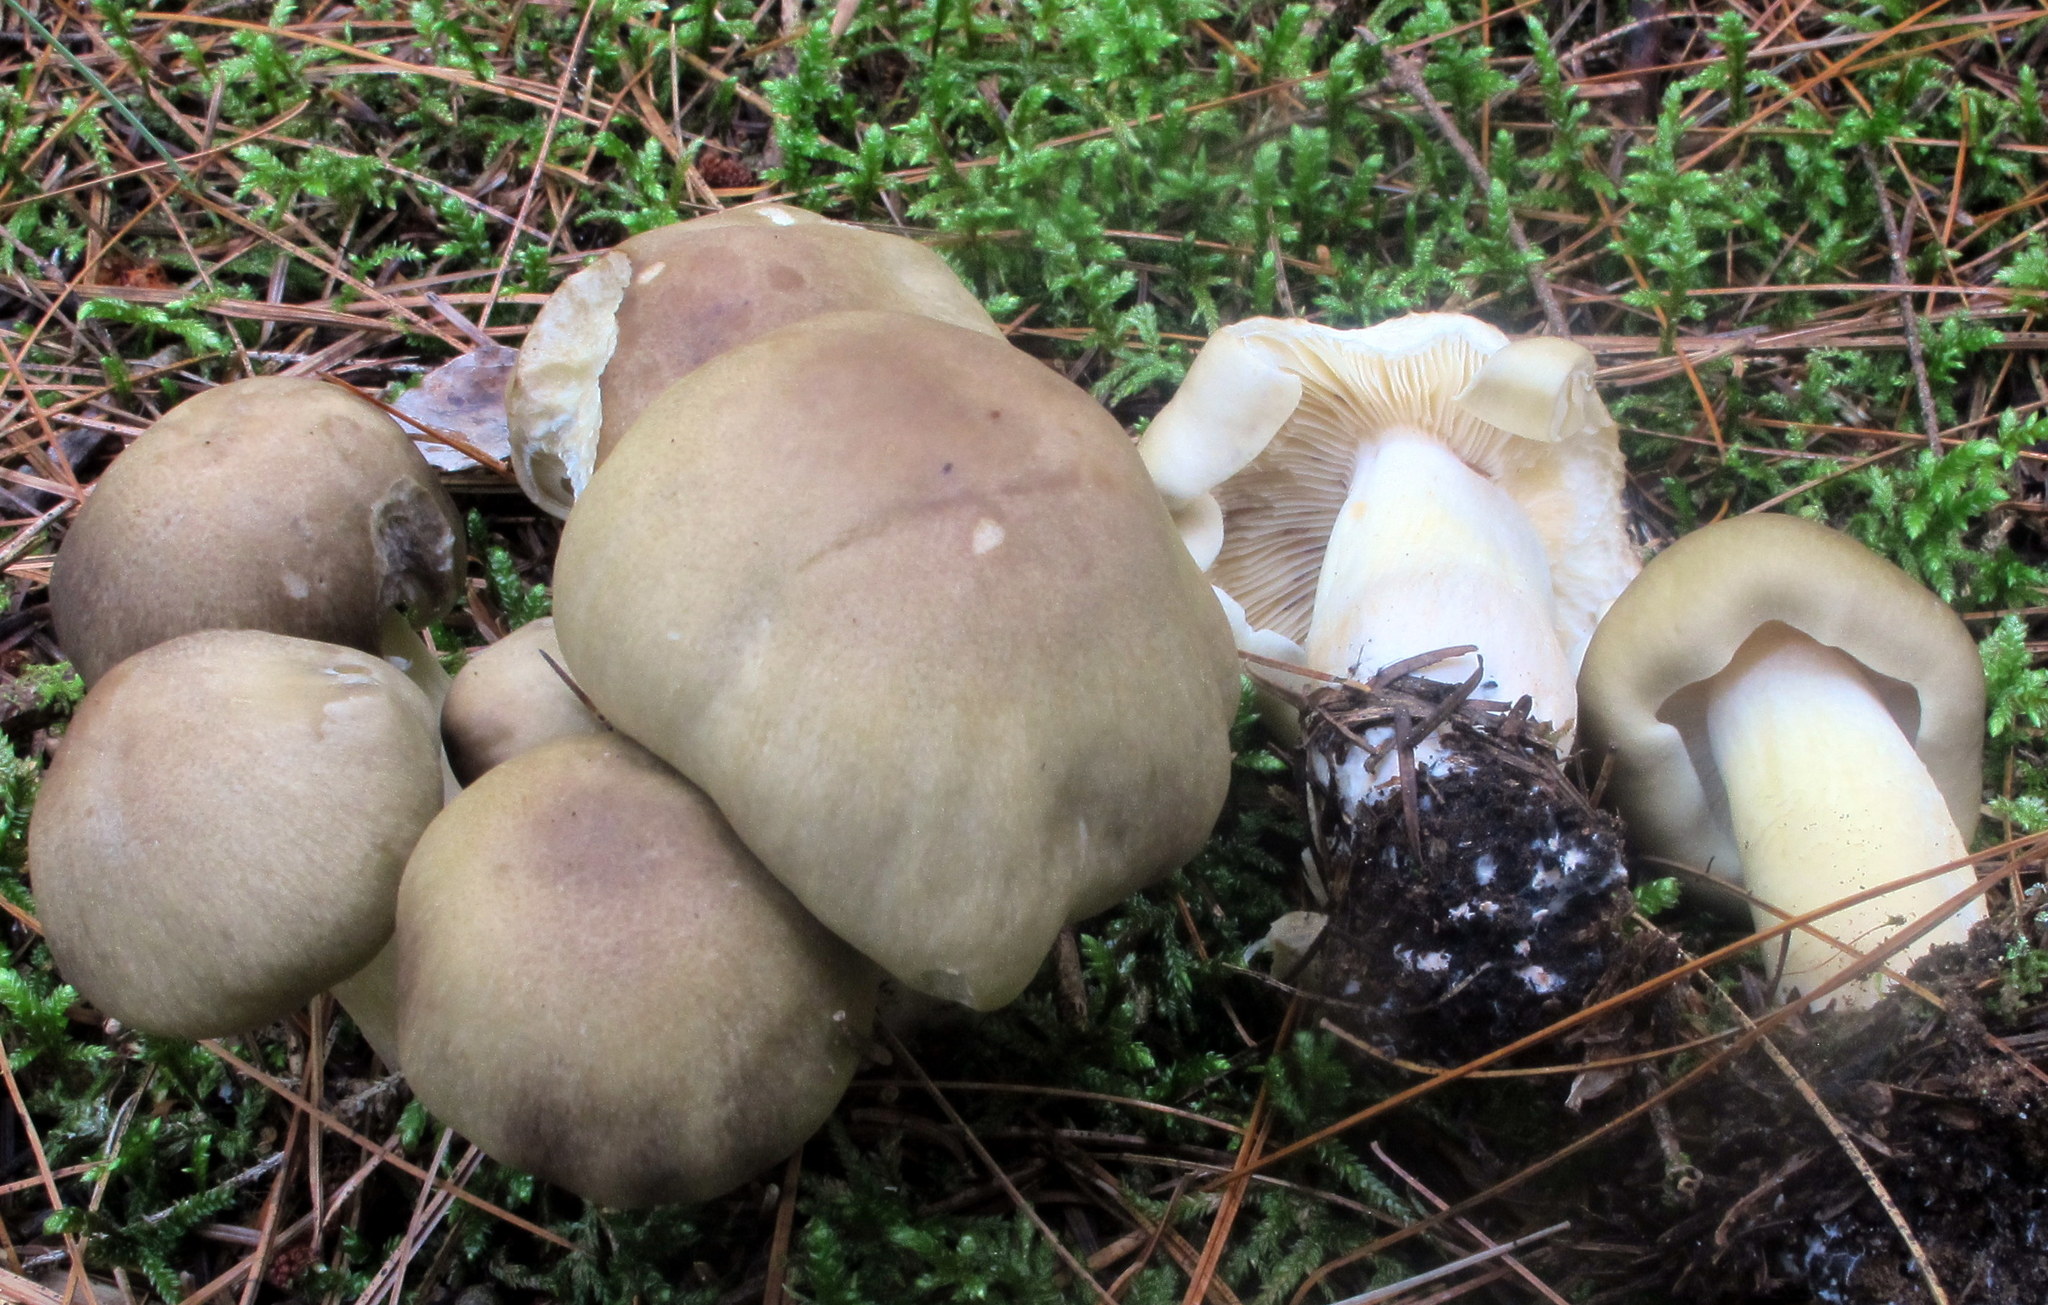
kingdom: Fungi
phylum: Basidiomycota
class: Agaricomycetes
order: Agaricales
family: Tricholomataceae
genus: Tricholoma
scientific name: Tricholoma saponaceum
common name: Soapy trich
